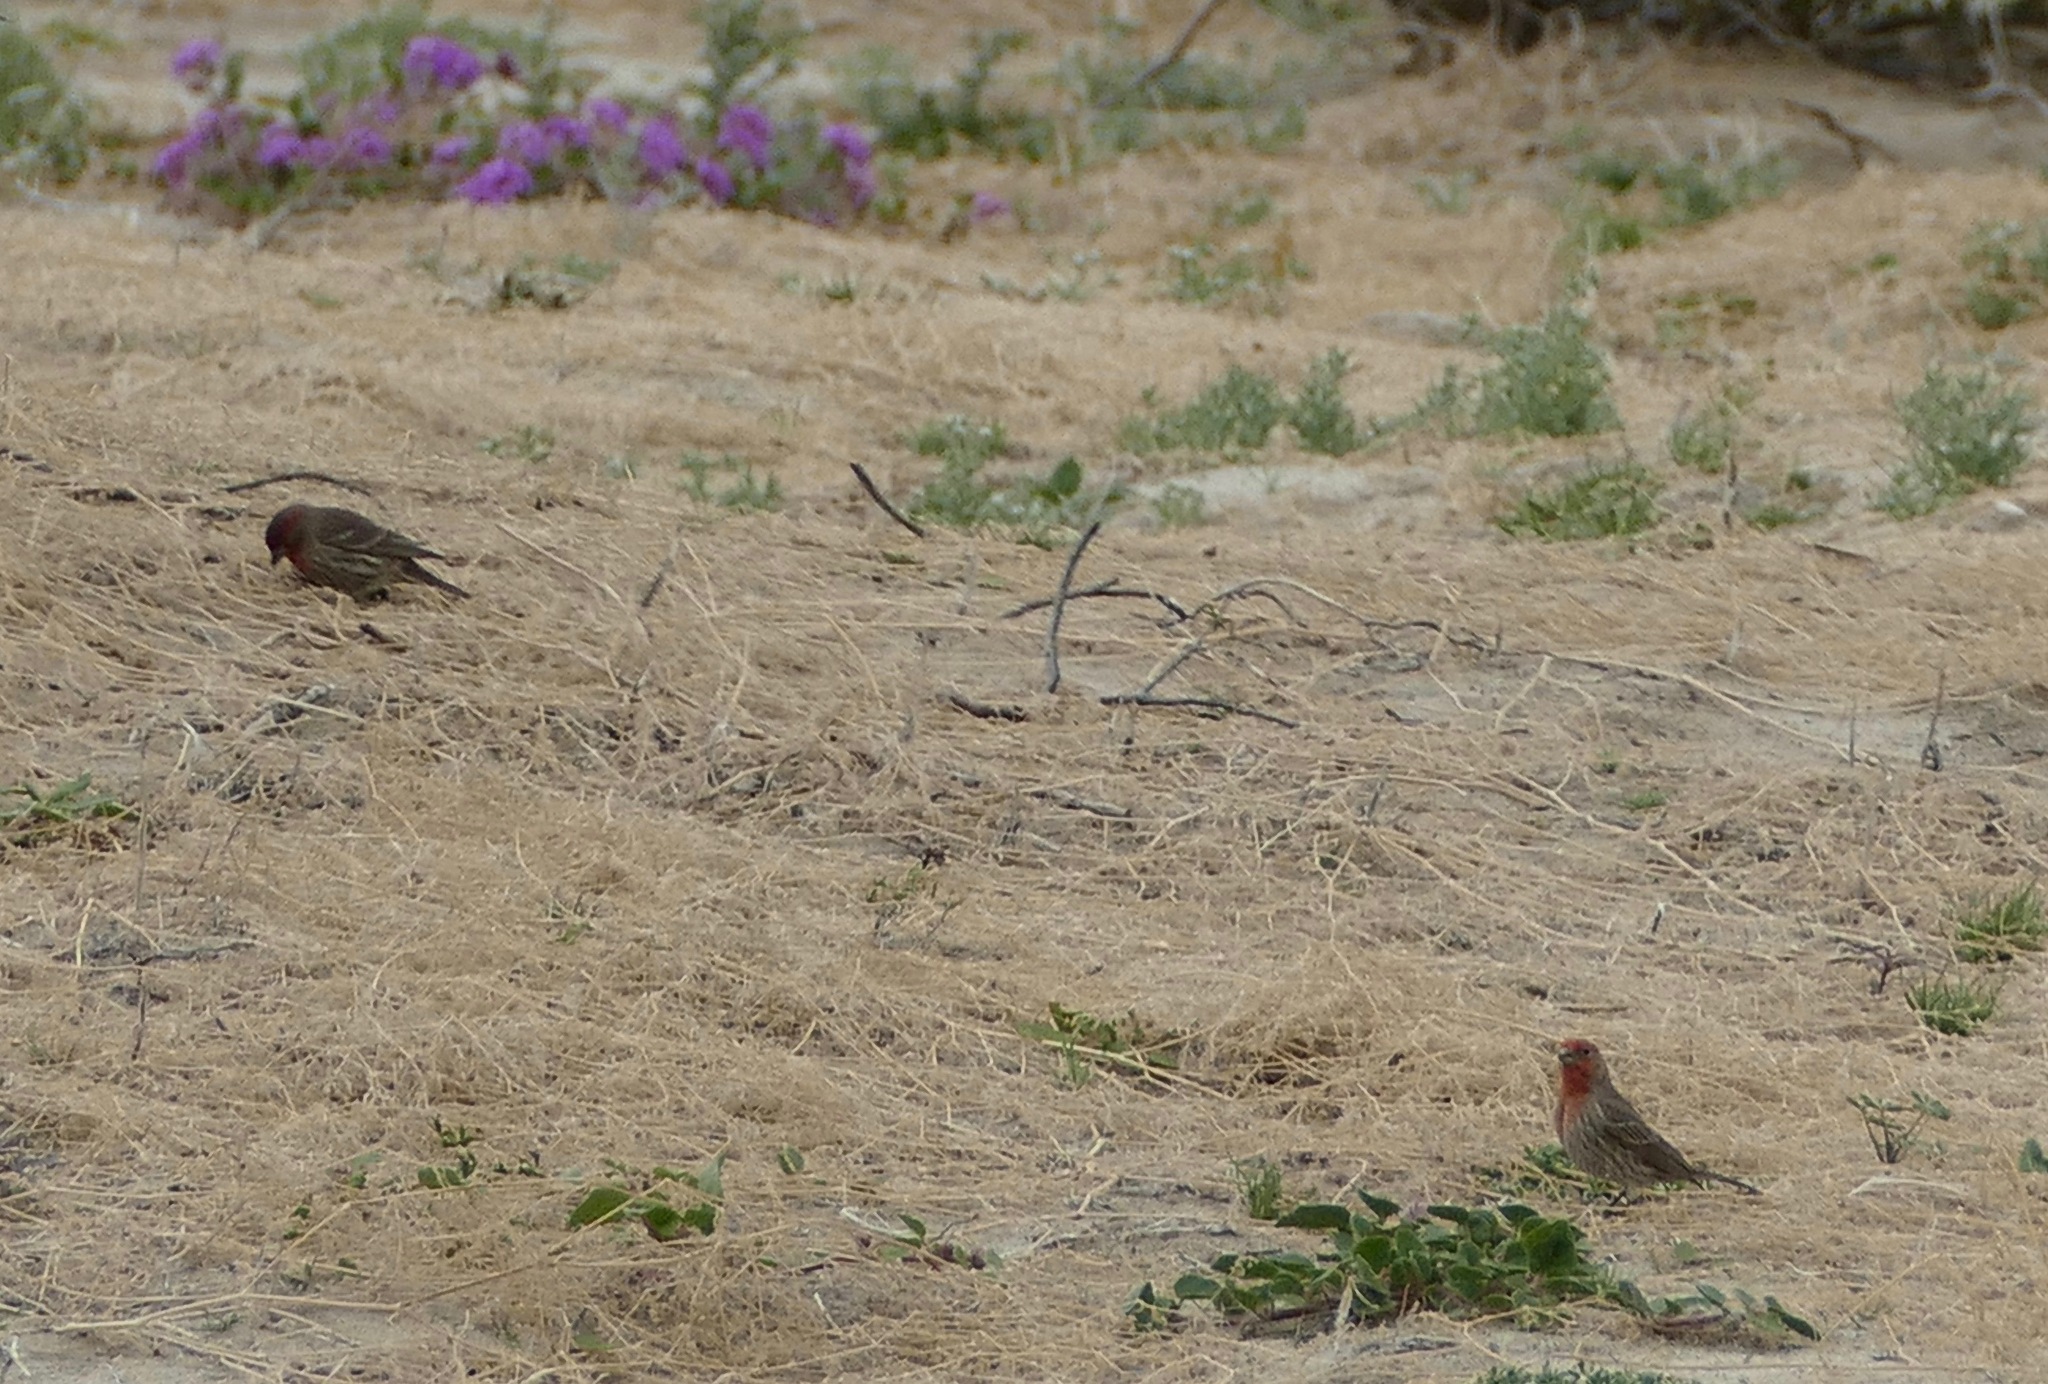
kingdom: Animalia
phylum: Chordata
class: Aves
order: Passeriformes
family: Fringillidae
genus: Haemorhous
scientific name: Haemorhous mexicanus
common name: House finch
